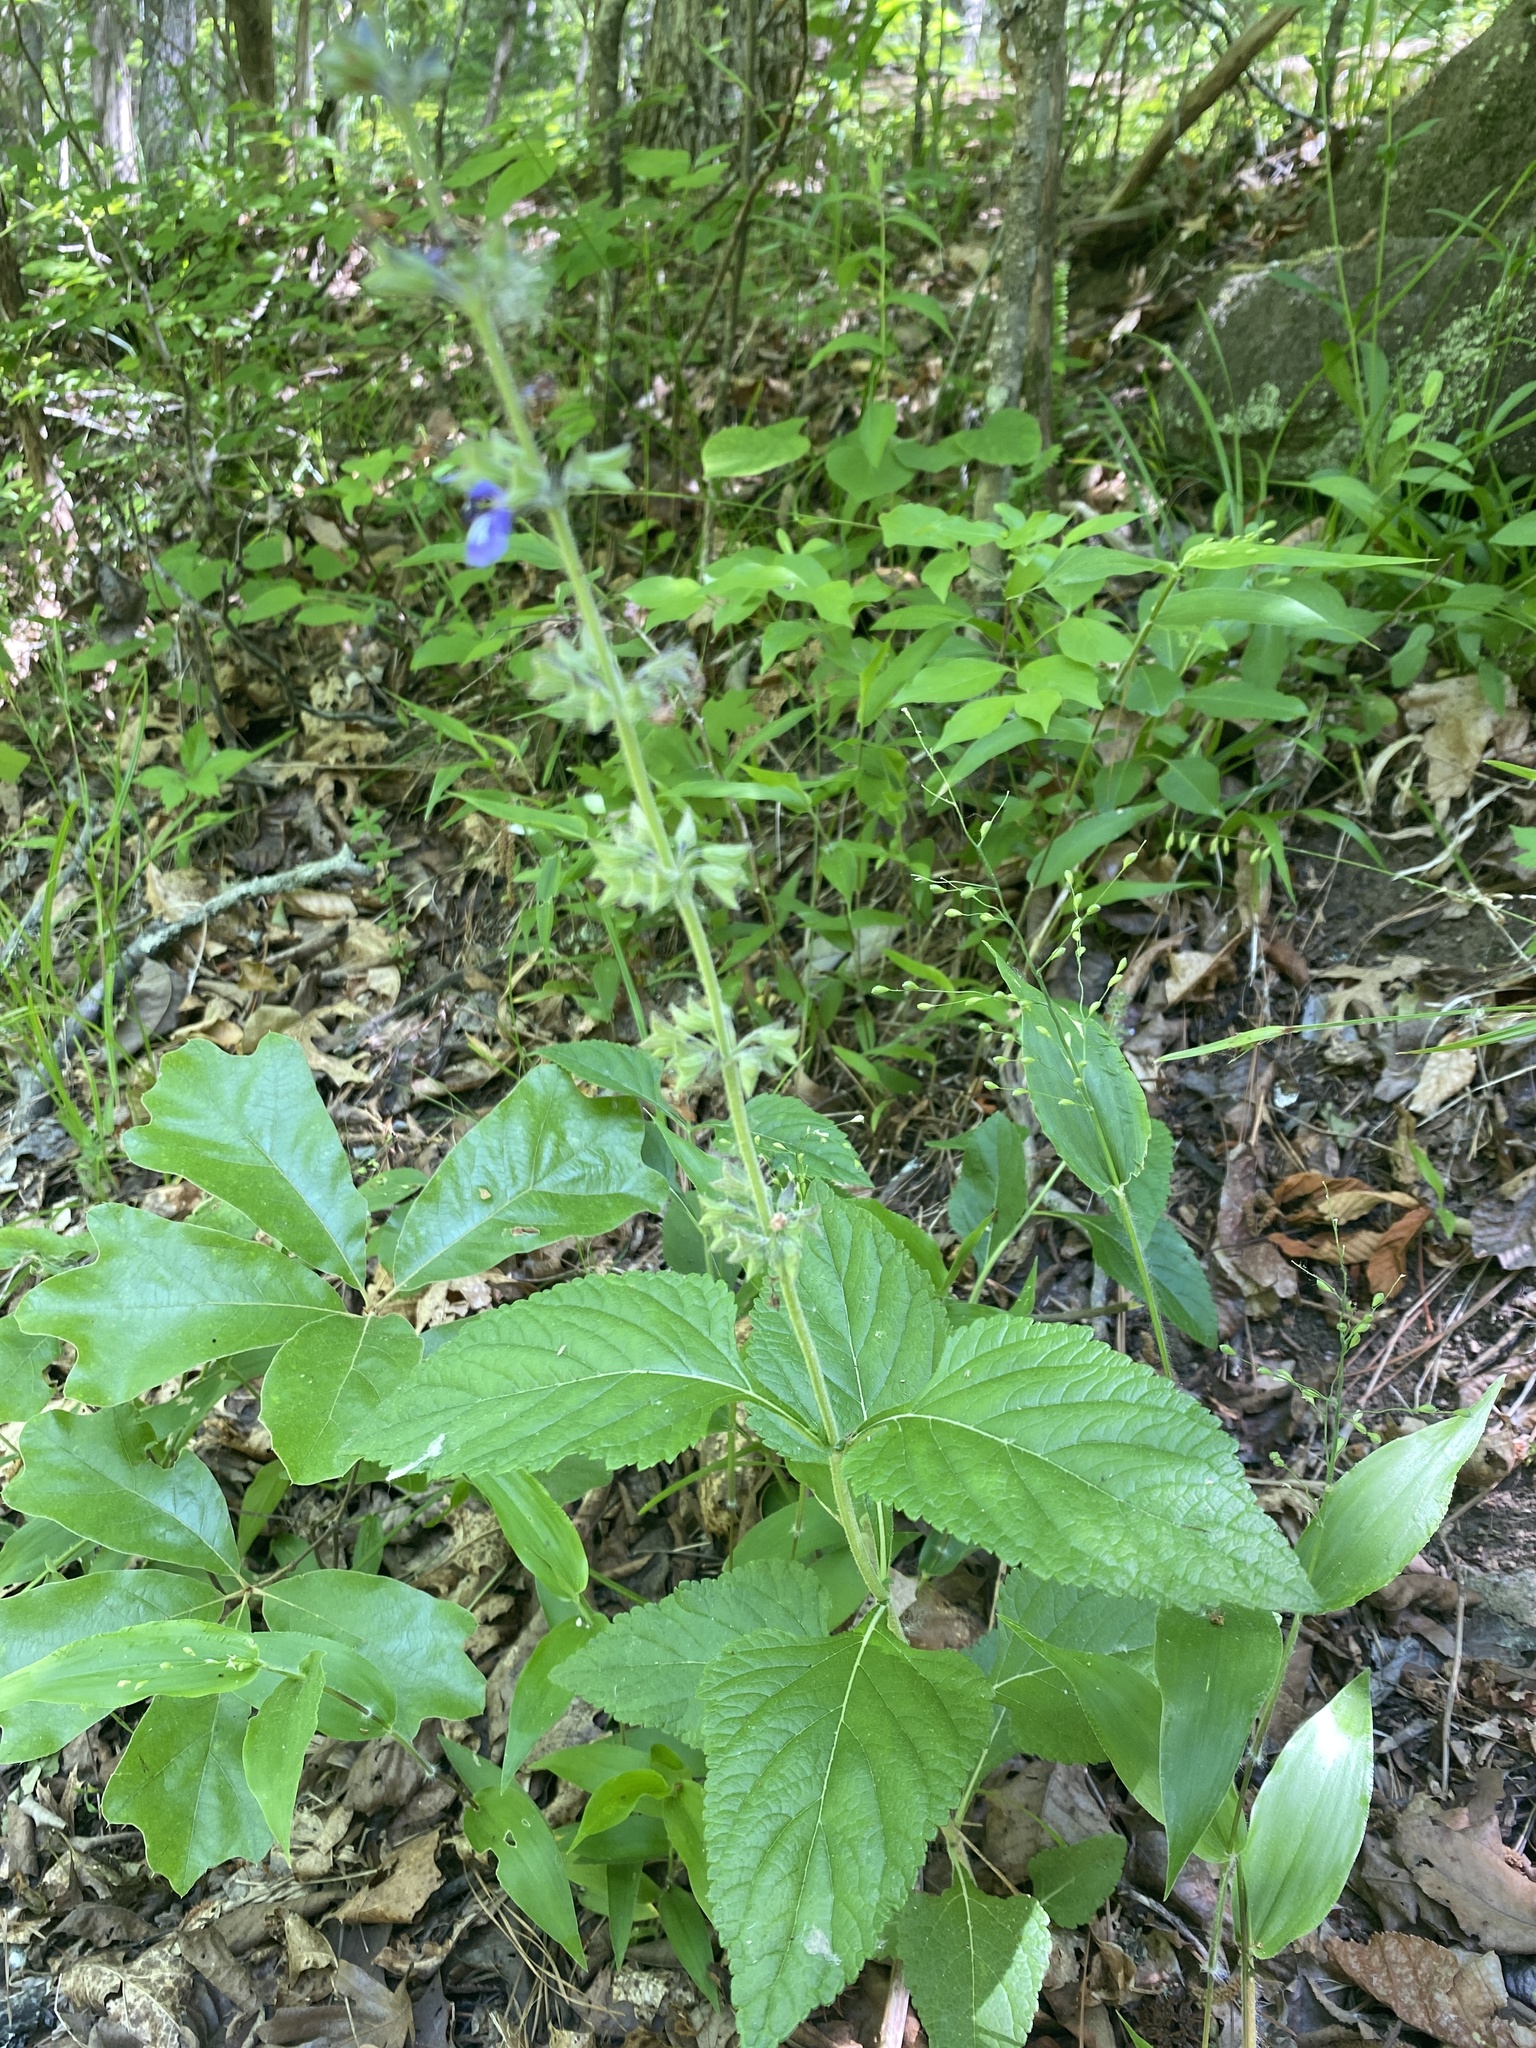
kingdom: Plantae
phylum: Tracheophyta
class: Magnoliopsida
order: Lamiales
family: Lamiaceae
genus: Salvia
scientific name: Salvia urticifolia
